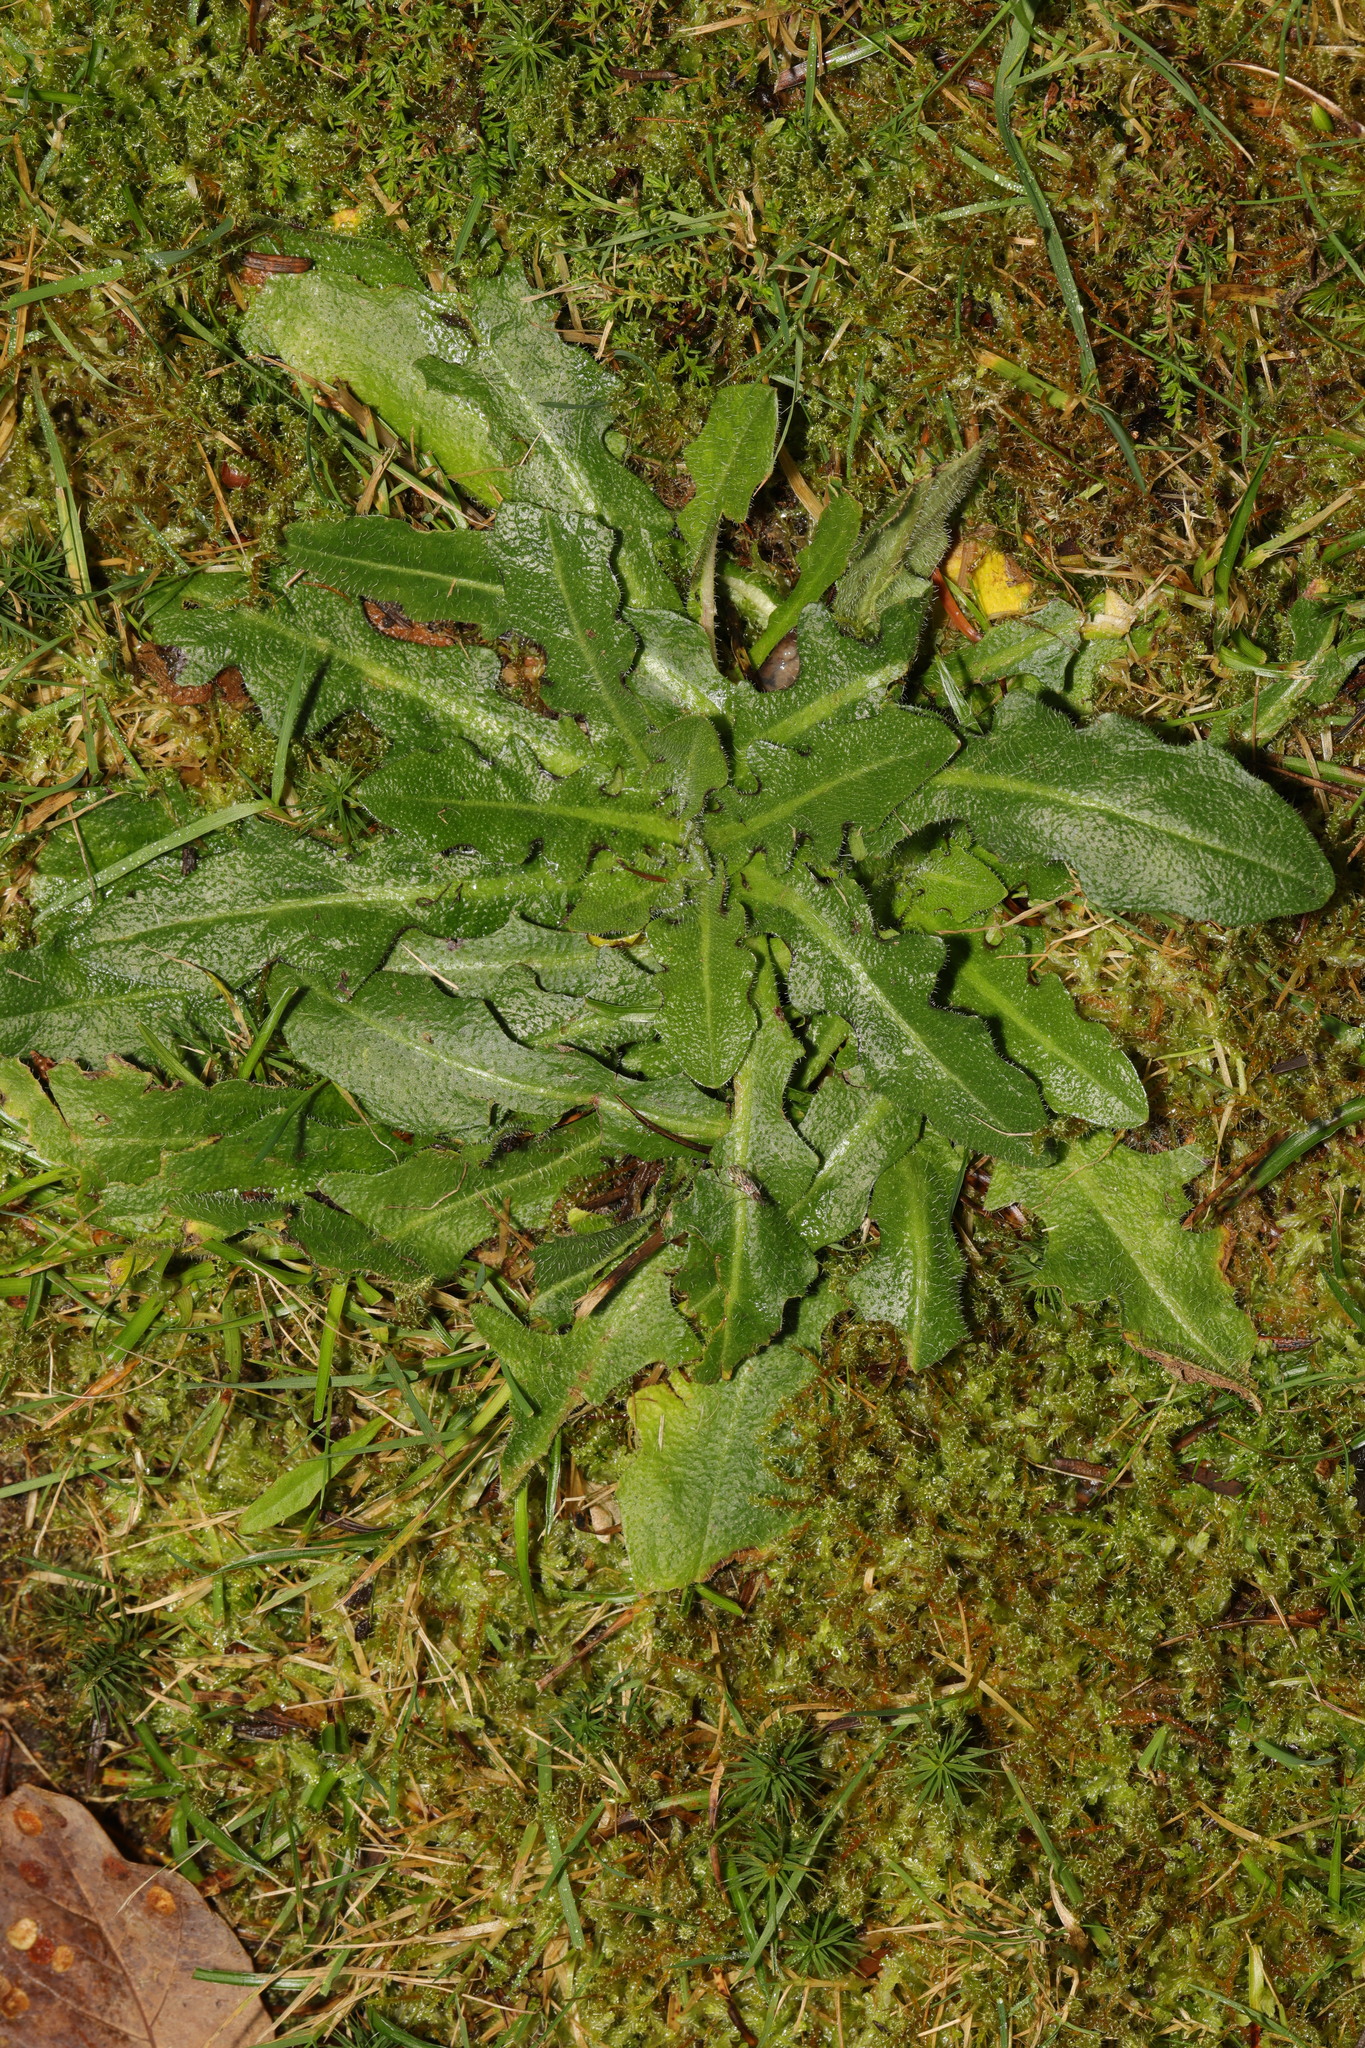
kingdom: Plantae
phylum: Tracheophyta
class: Magnoliopsida
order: Asterales
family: Asteraceae
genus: Hypochaeris
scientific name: Hypochaeris radicata
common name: Flatweed
